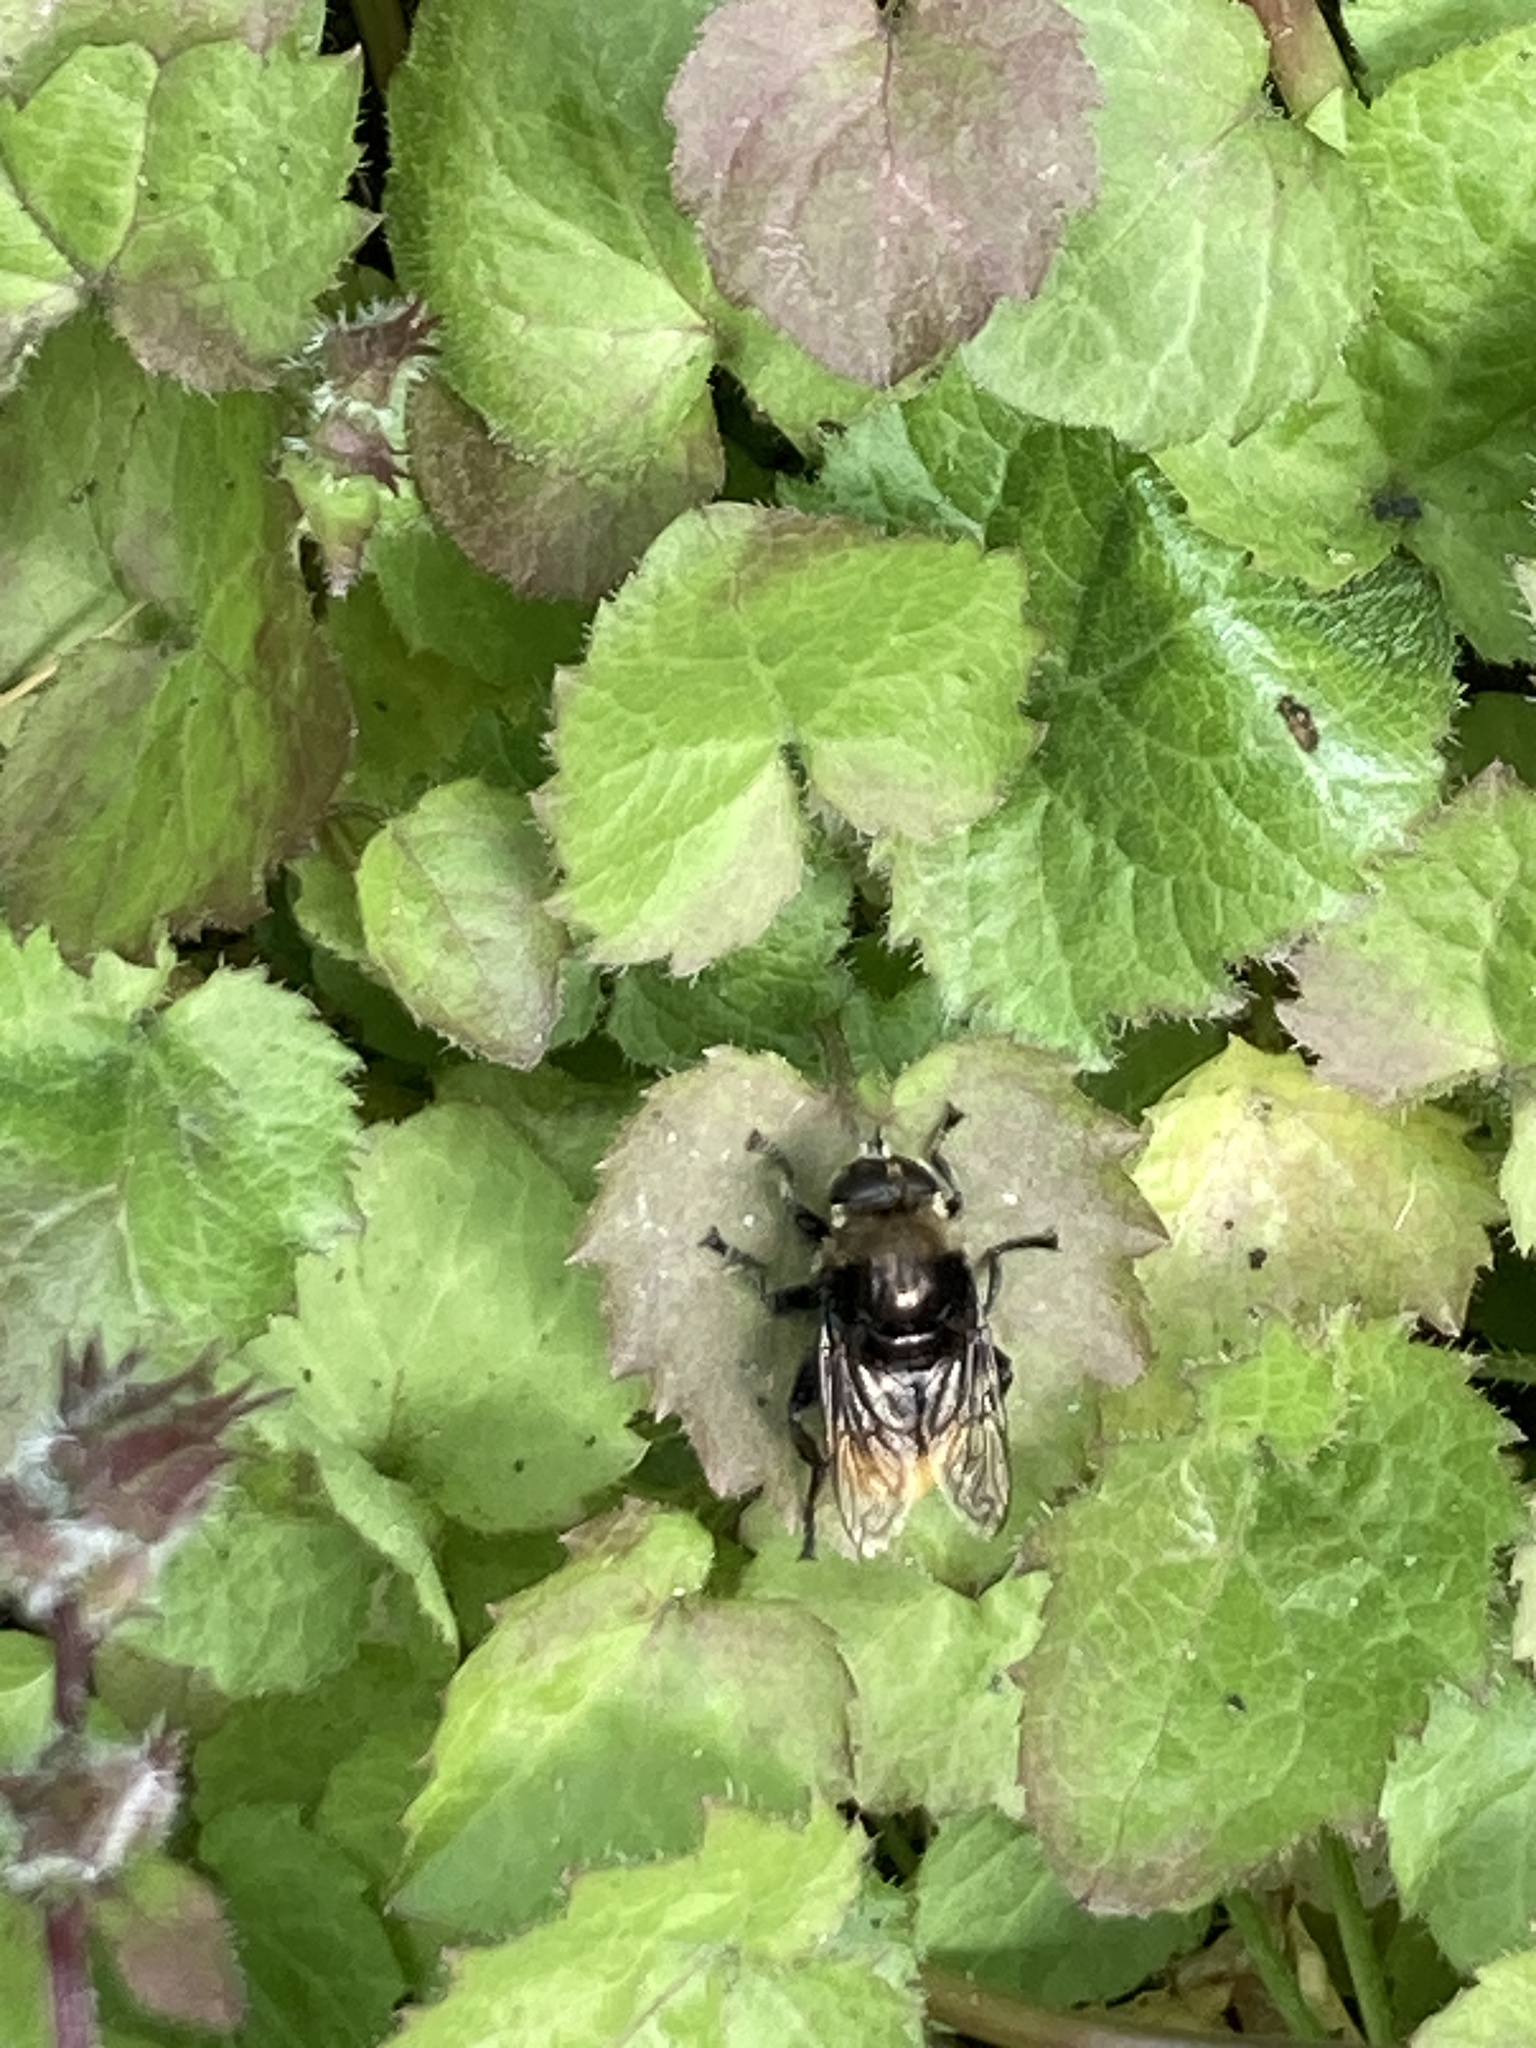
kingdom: Animalia
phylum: Arthropoda
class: Insecta
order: Diptera
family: Syrphidae
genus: Merodon
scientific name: Merodon equestris
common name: Greater bulb-fly
